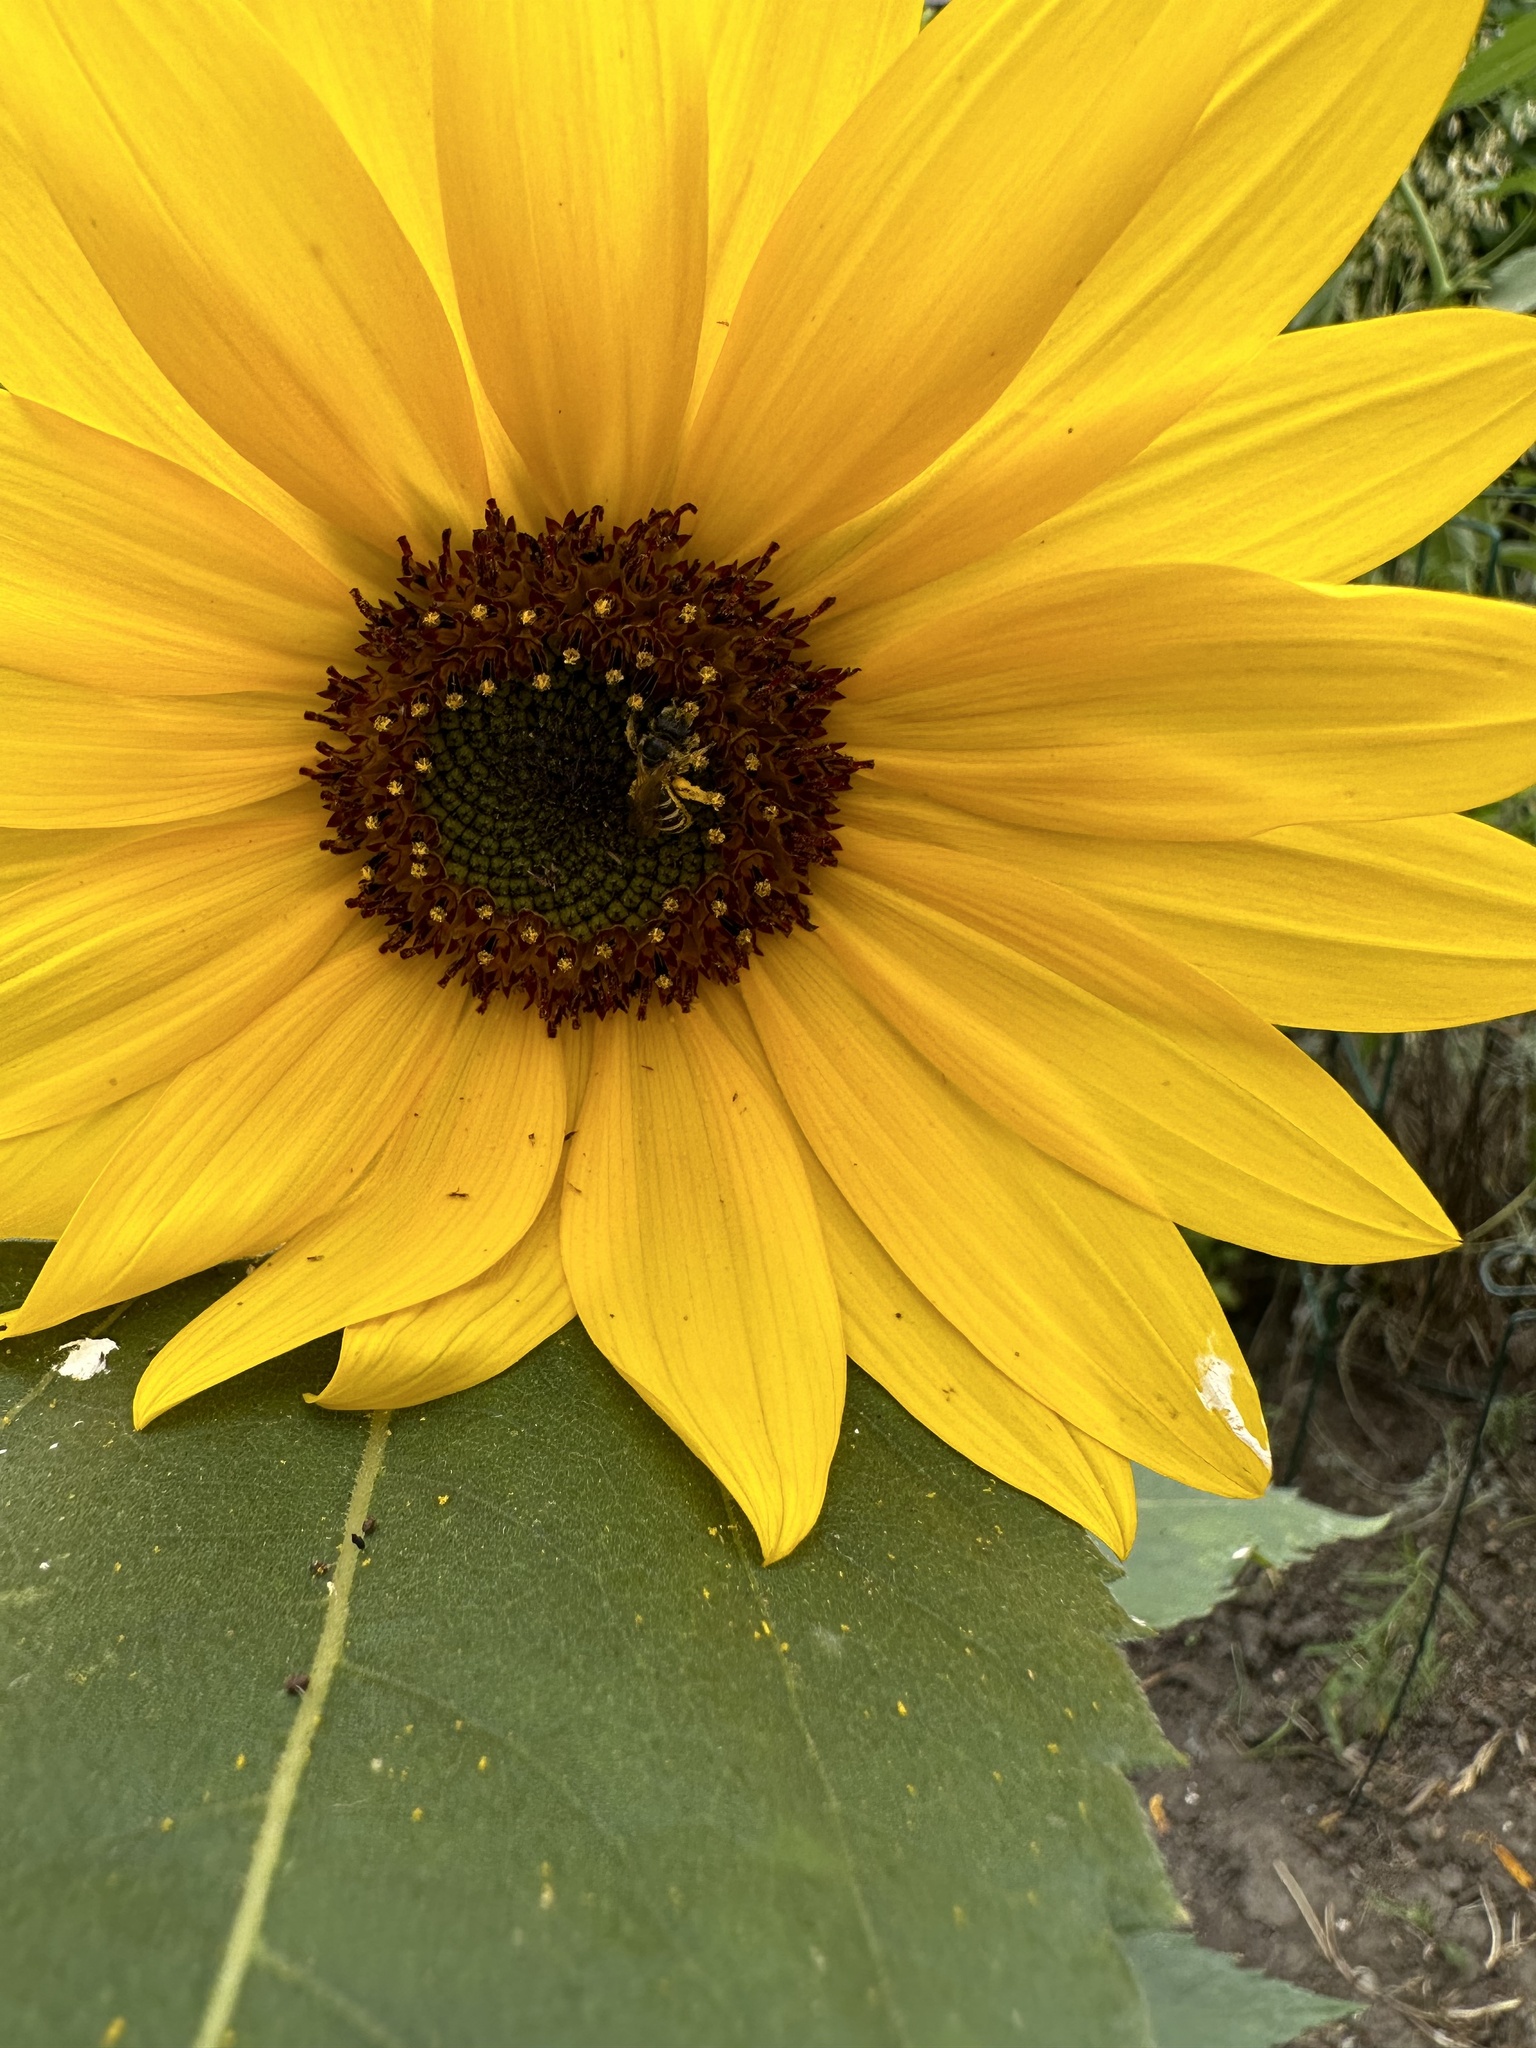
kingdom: Animalia
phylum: Arthropoda
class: Insecta
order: Hymenoptera
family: Halictidae
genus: Halictus
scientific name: Halictus ligatus
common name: Ligated furrow bee
